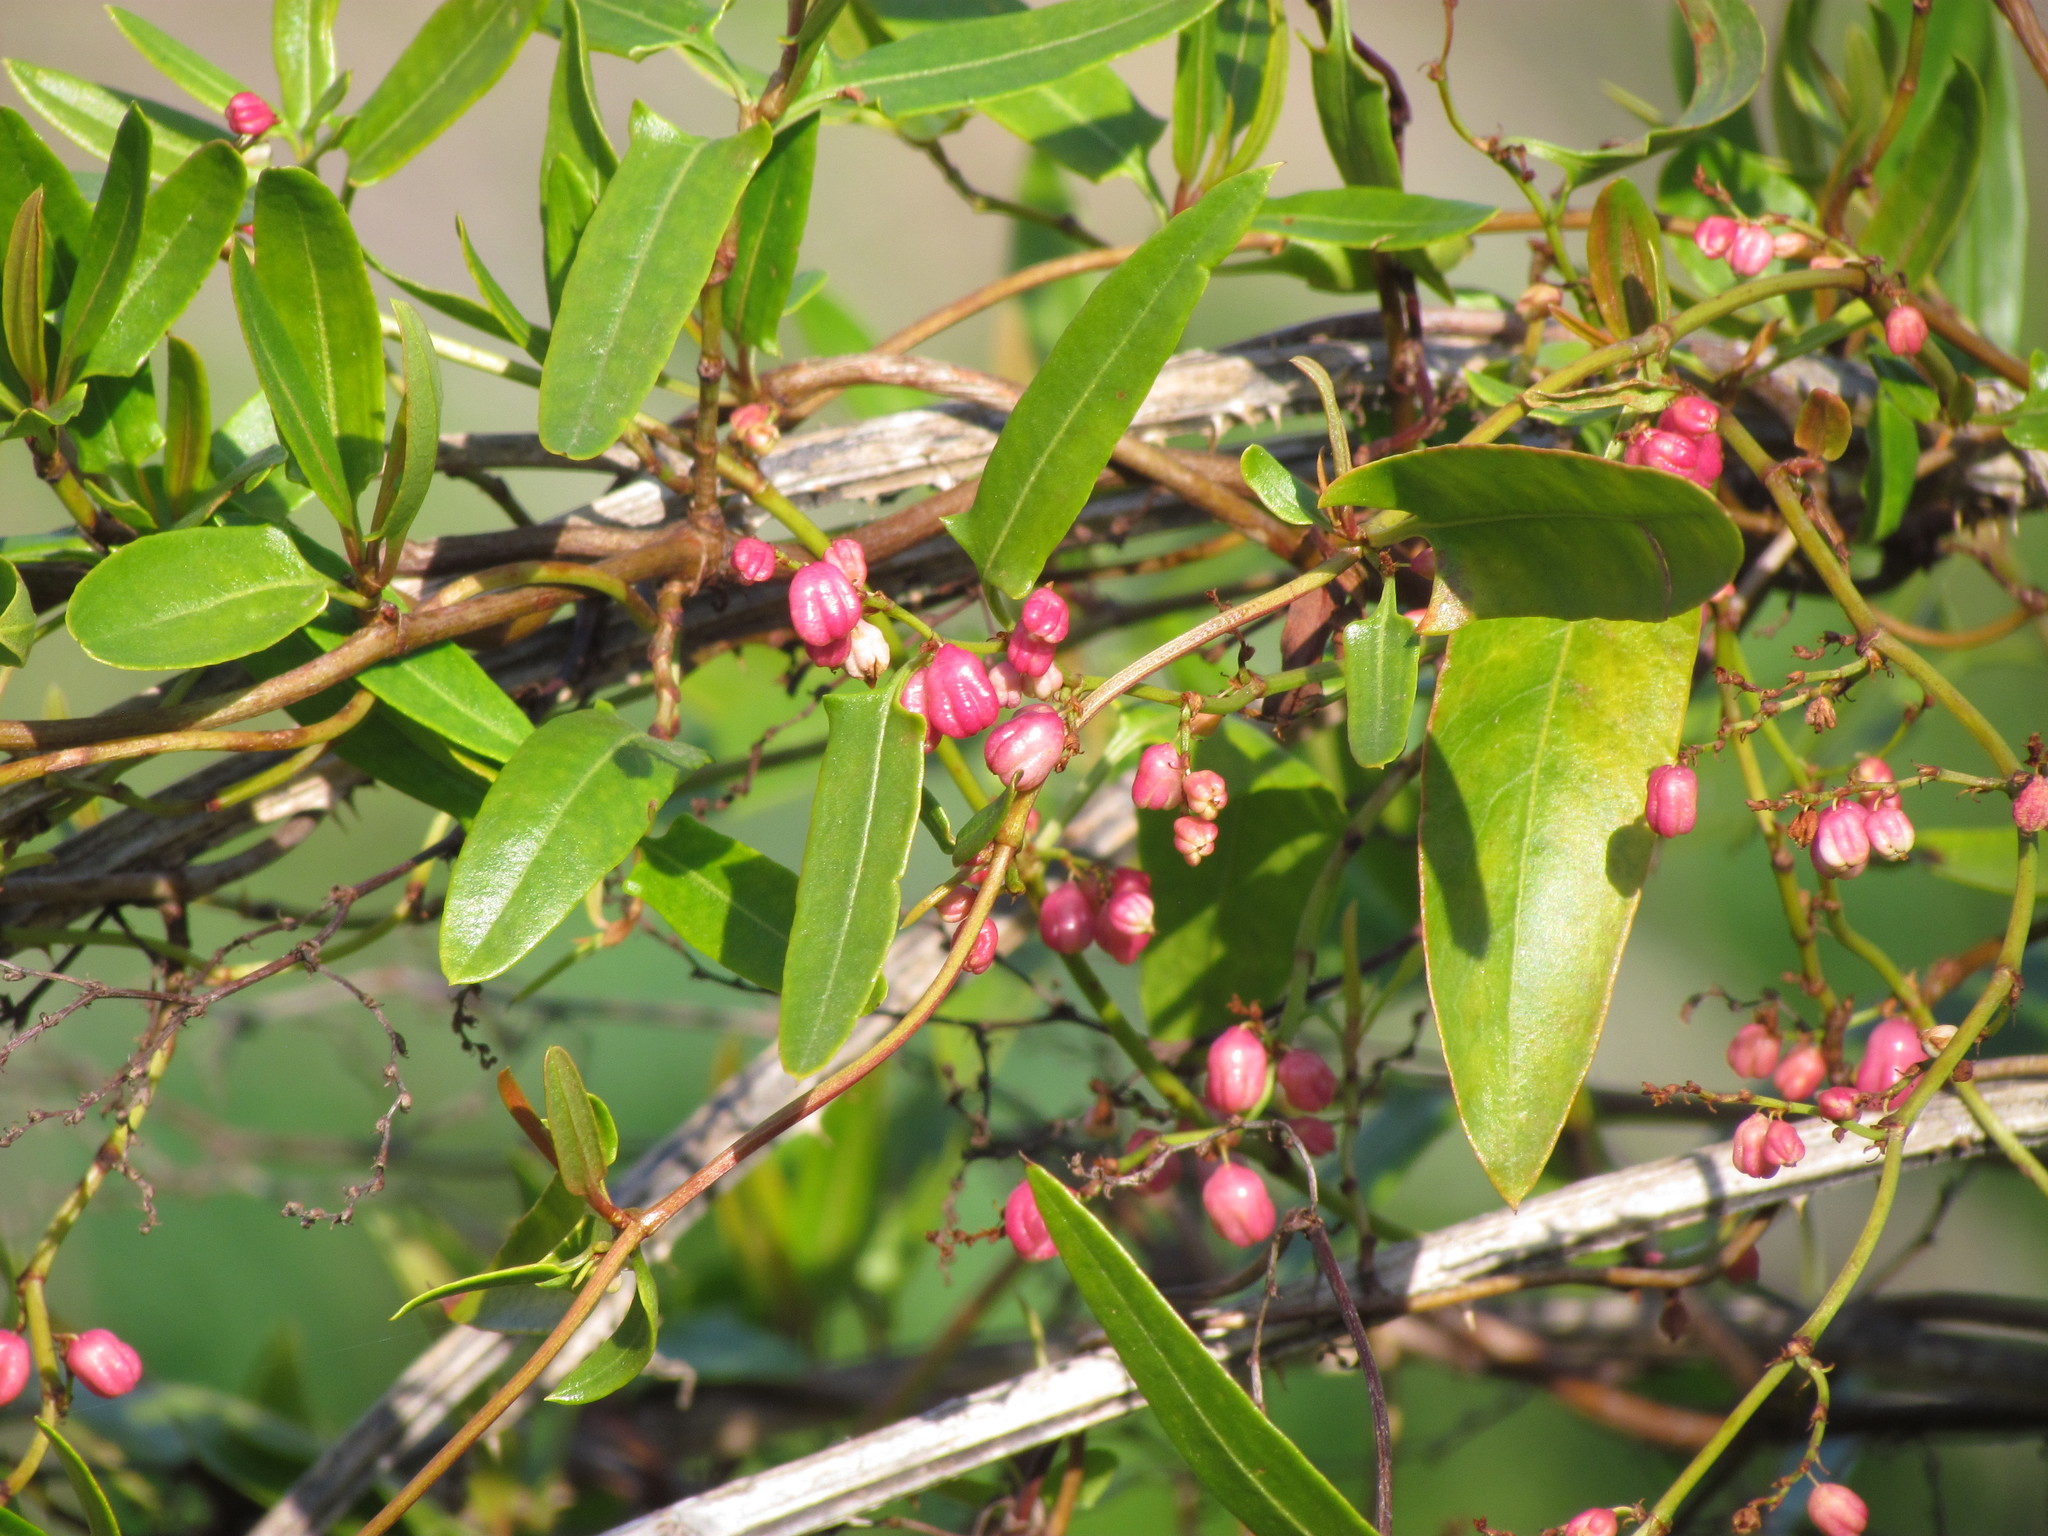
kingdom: Plantae
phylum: Tracheophyta
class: Magnoliopsida
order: Caryophyllales
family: Polygonaceae
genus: Muehlenbeckia
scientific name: Muehlenbeckia sagittifolia
